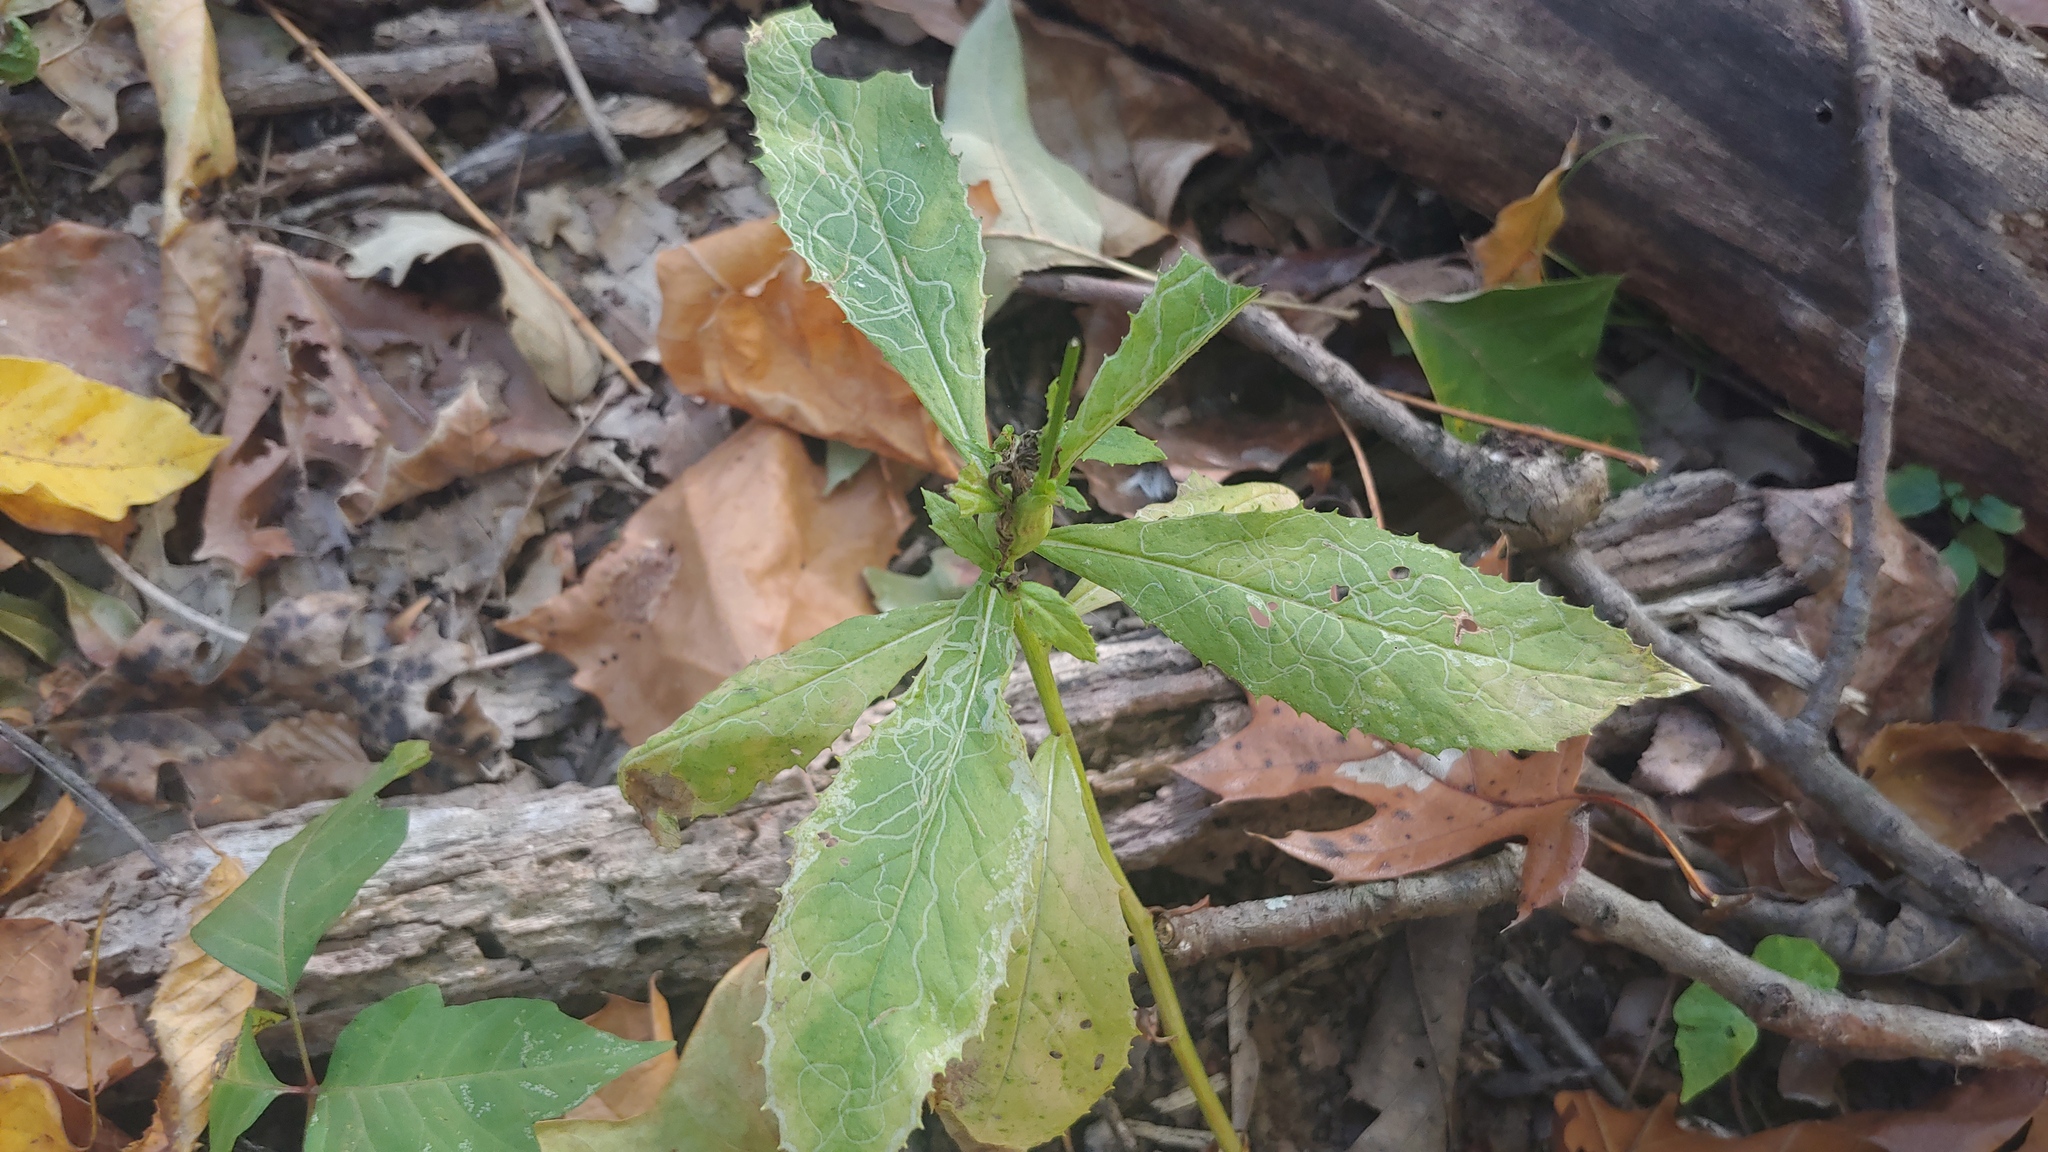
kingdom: Plantae
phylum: Tracheophyta
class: Magnoliopsida
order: Asterales
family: Asteraceae
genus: Erechtites
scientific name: Erechtites hieraciifolius
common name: American burnweed
